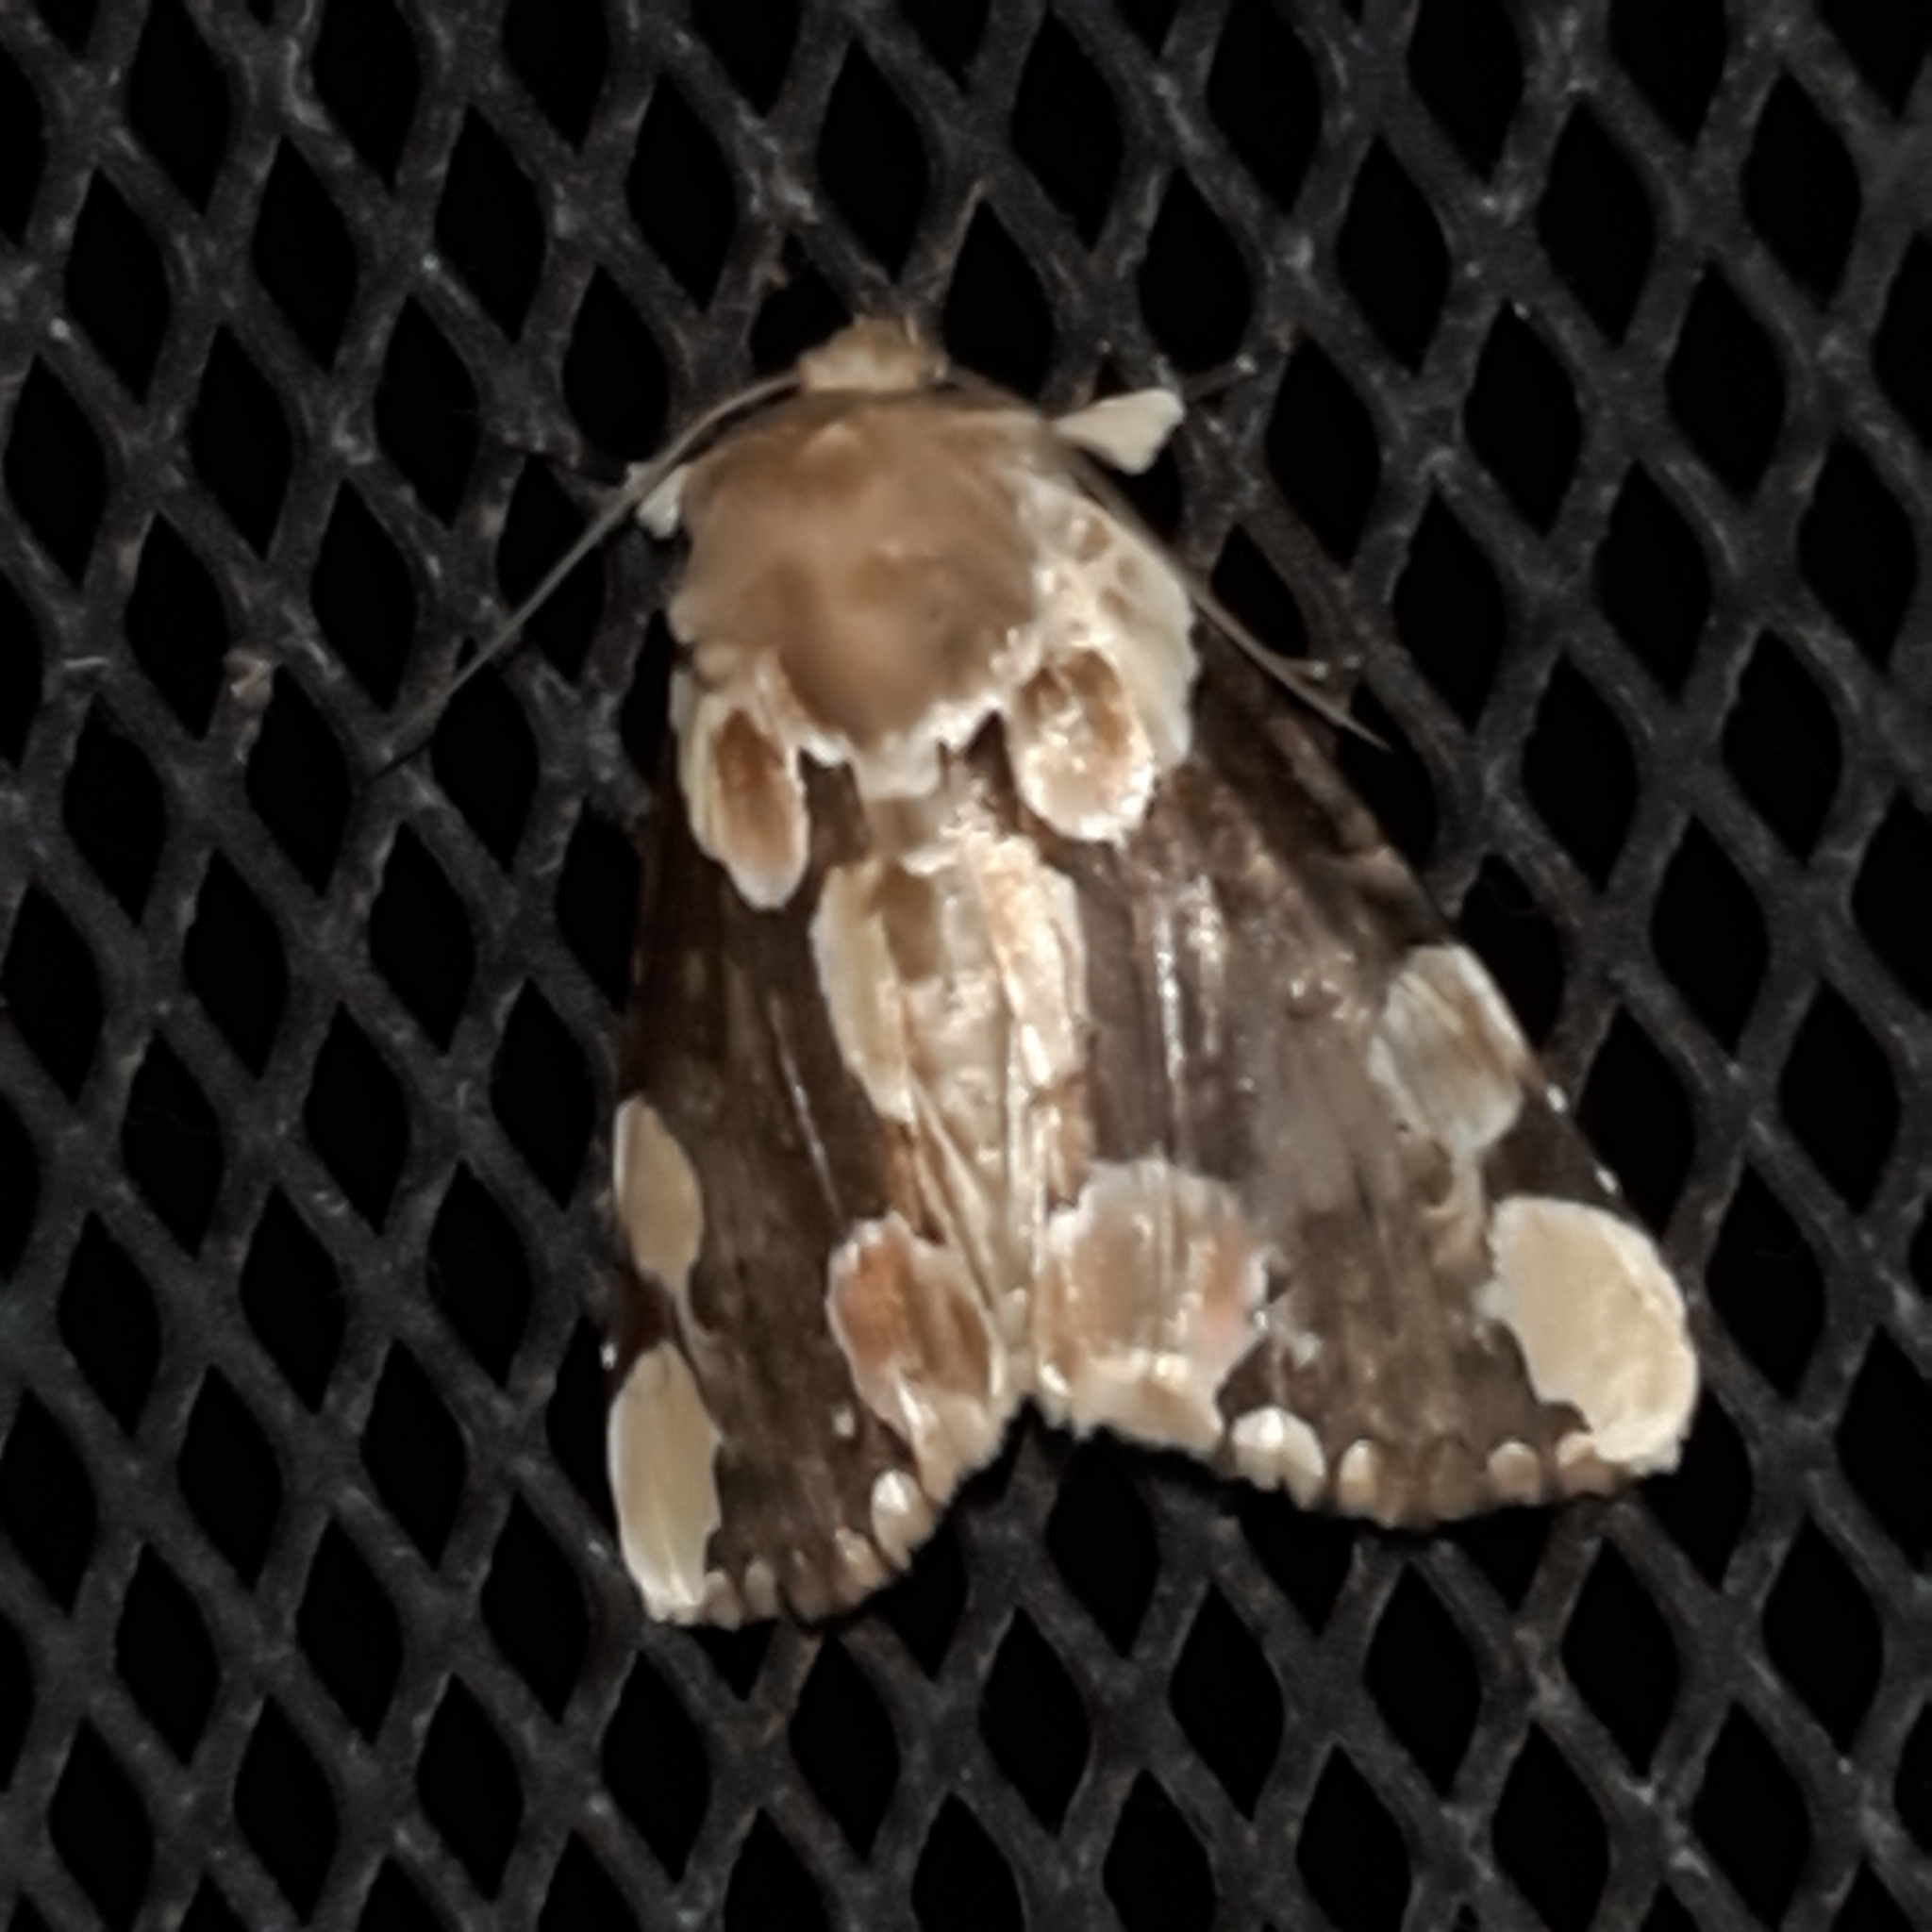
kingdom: Animalia
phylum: Arthropoda
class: Insecta
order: Lepidoptera
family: Drepanidae
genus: Thyatira
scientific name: Thyatira mexicana
